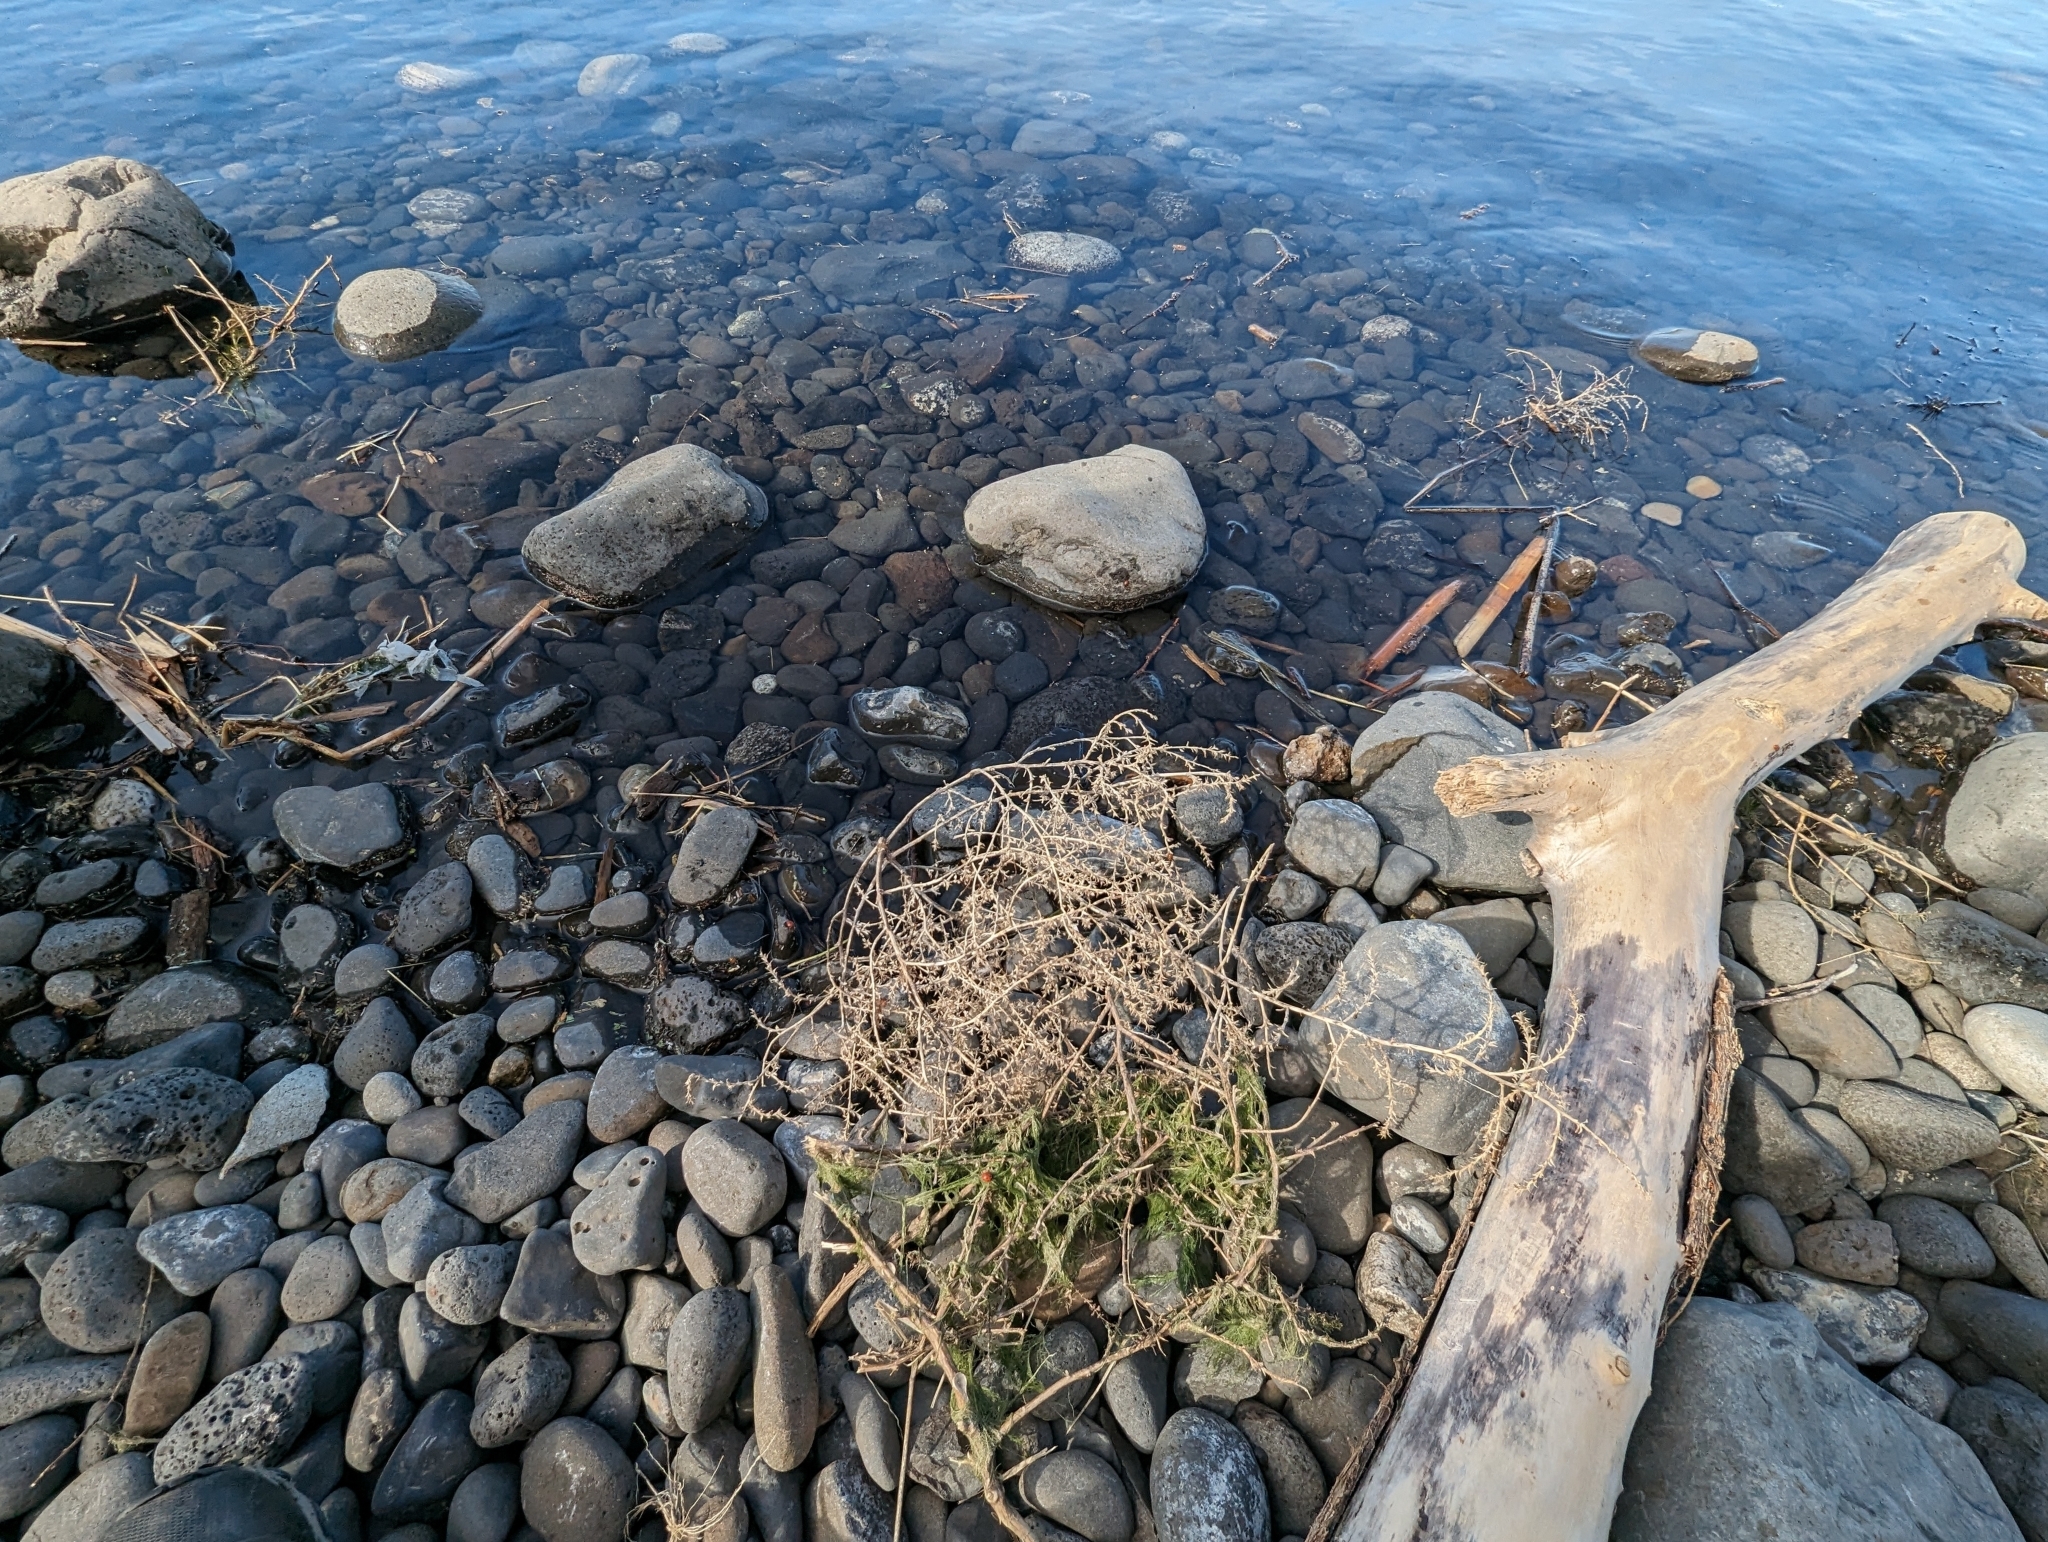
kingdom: Animalia
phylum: Arthropoda
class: Insecta
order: Coleoptera
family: Coccinellidae
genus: Coccinella
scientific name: Coccinella septempunctata
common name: Sevenspotted lady beetle
